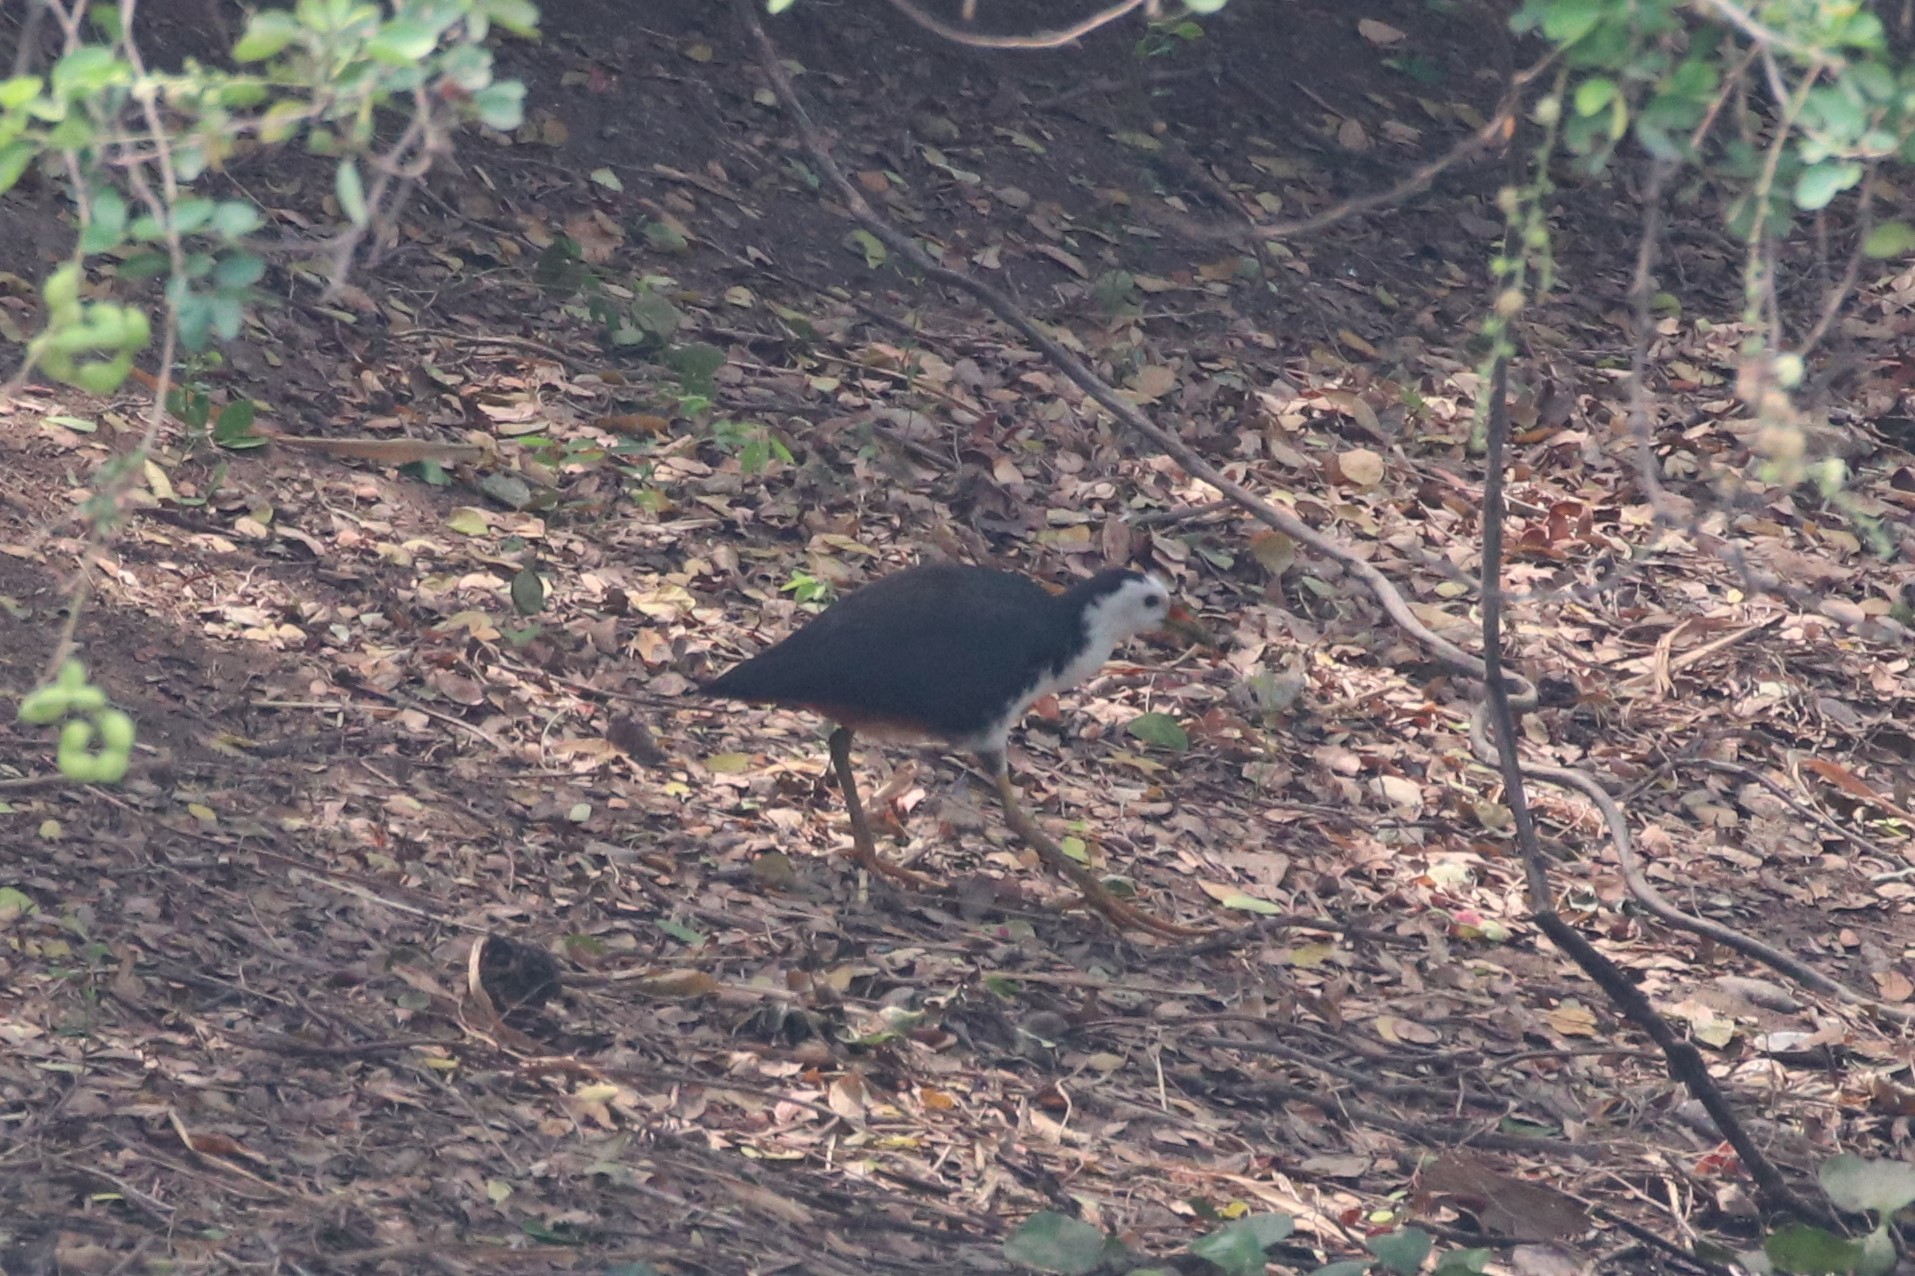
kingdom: Animalia
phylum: Chordata
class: Aves
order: Gruiformes
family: Rallidae
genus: Amaurornis
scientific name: Amaurornis phoenicurus
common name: White-breasted waterhen
